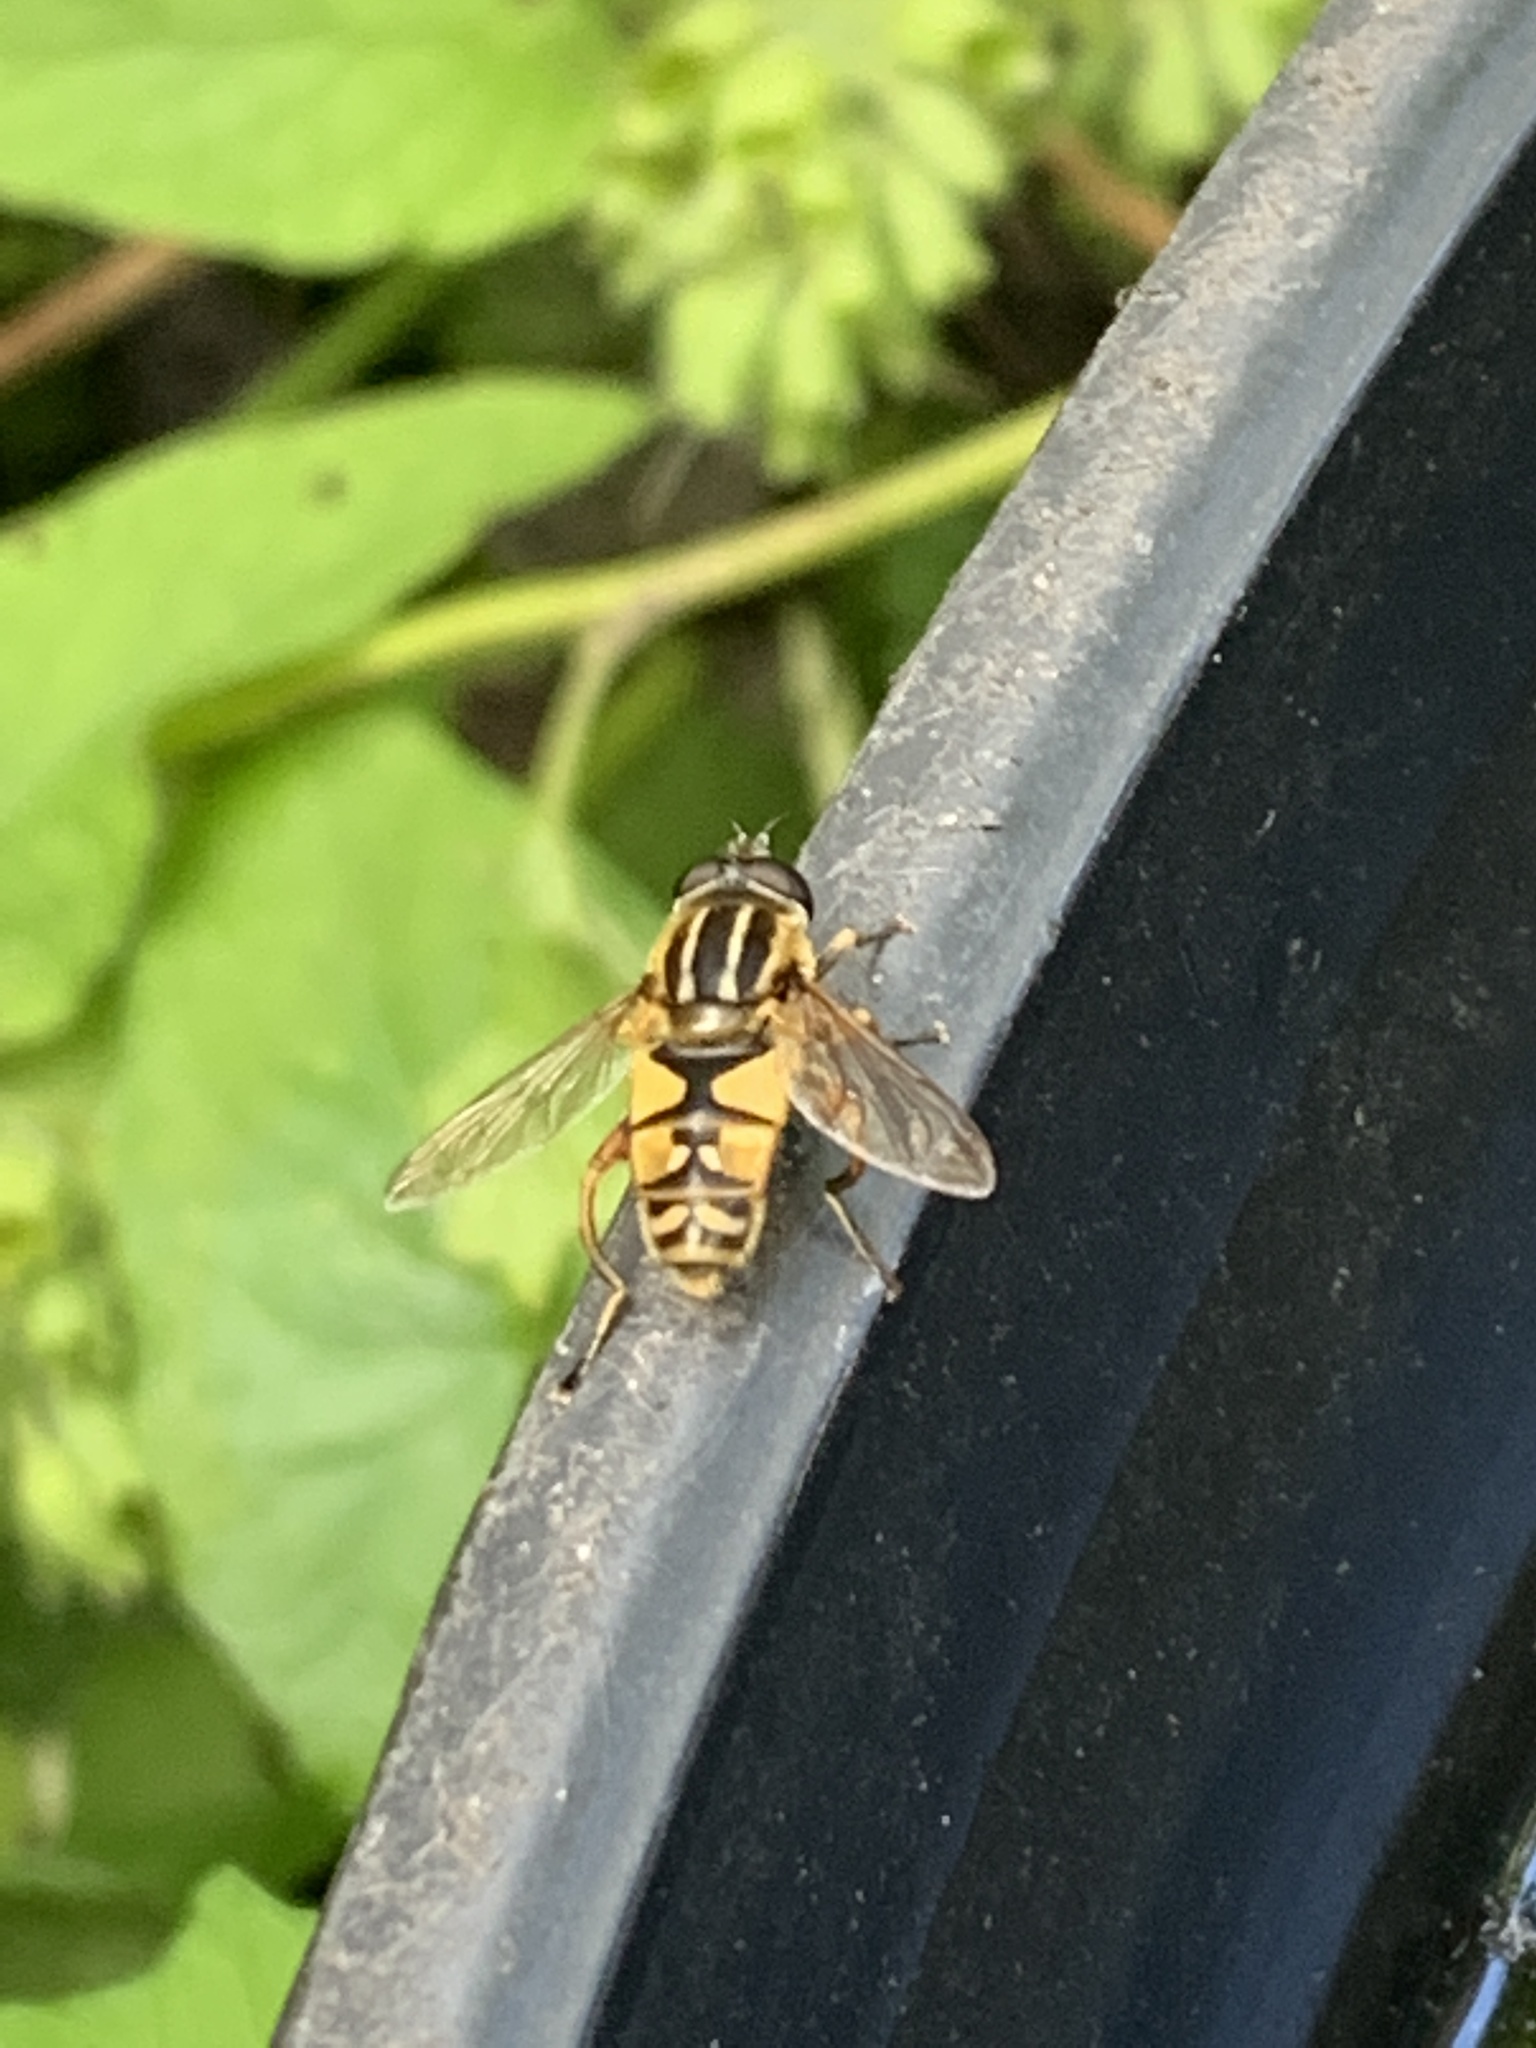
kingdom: Animalia
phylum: Arthropoda
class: Insecta
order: Diptera
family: Syrphidae
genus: Helophilus
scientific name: Helophilus pendulus
